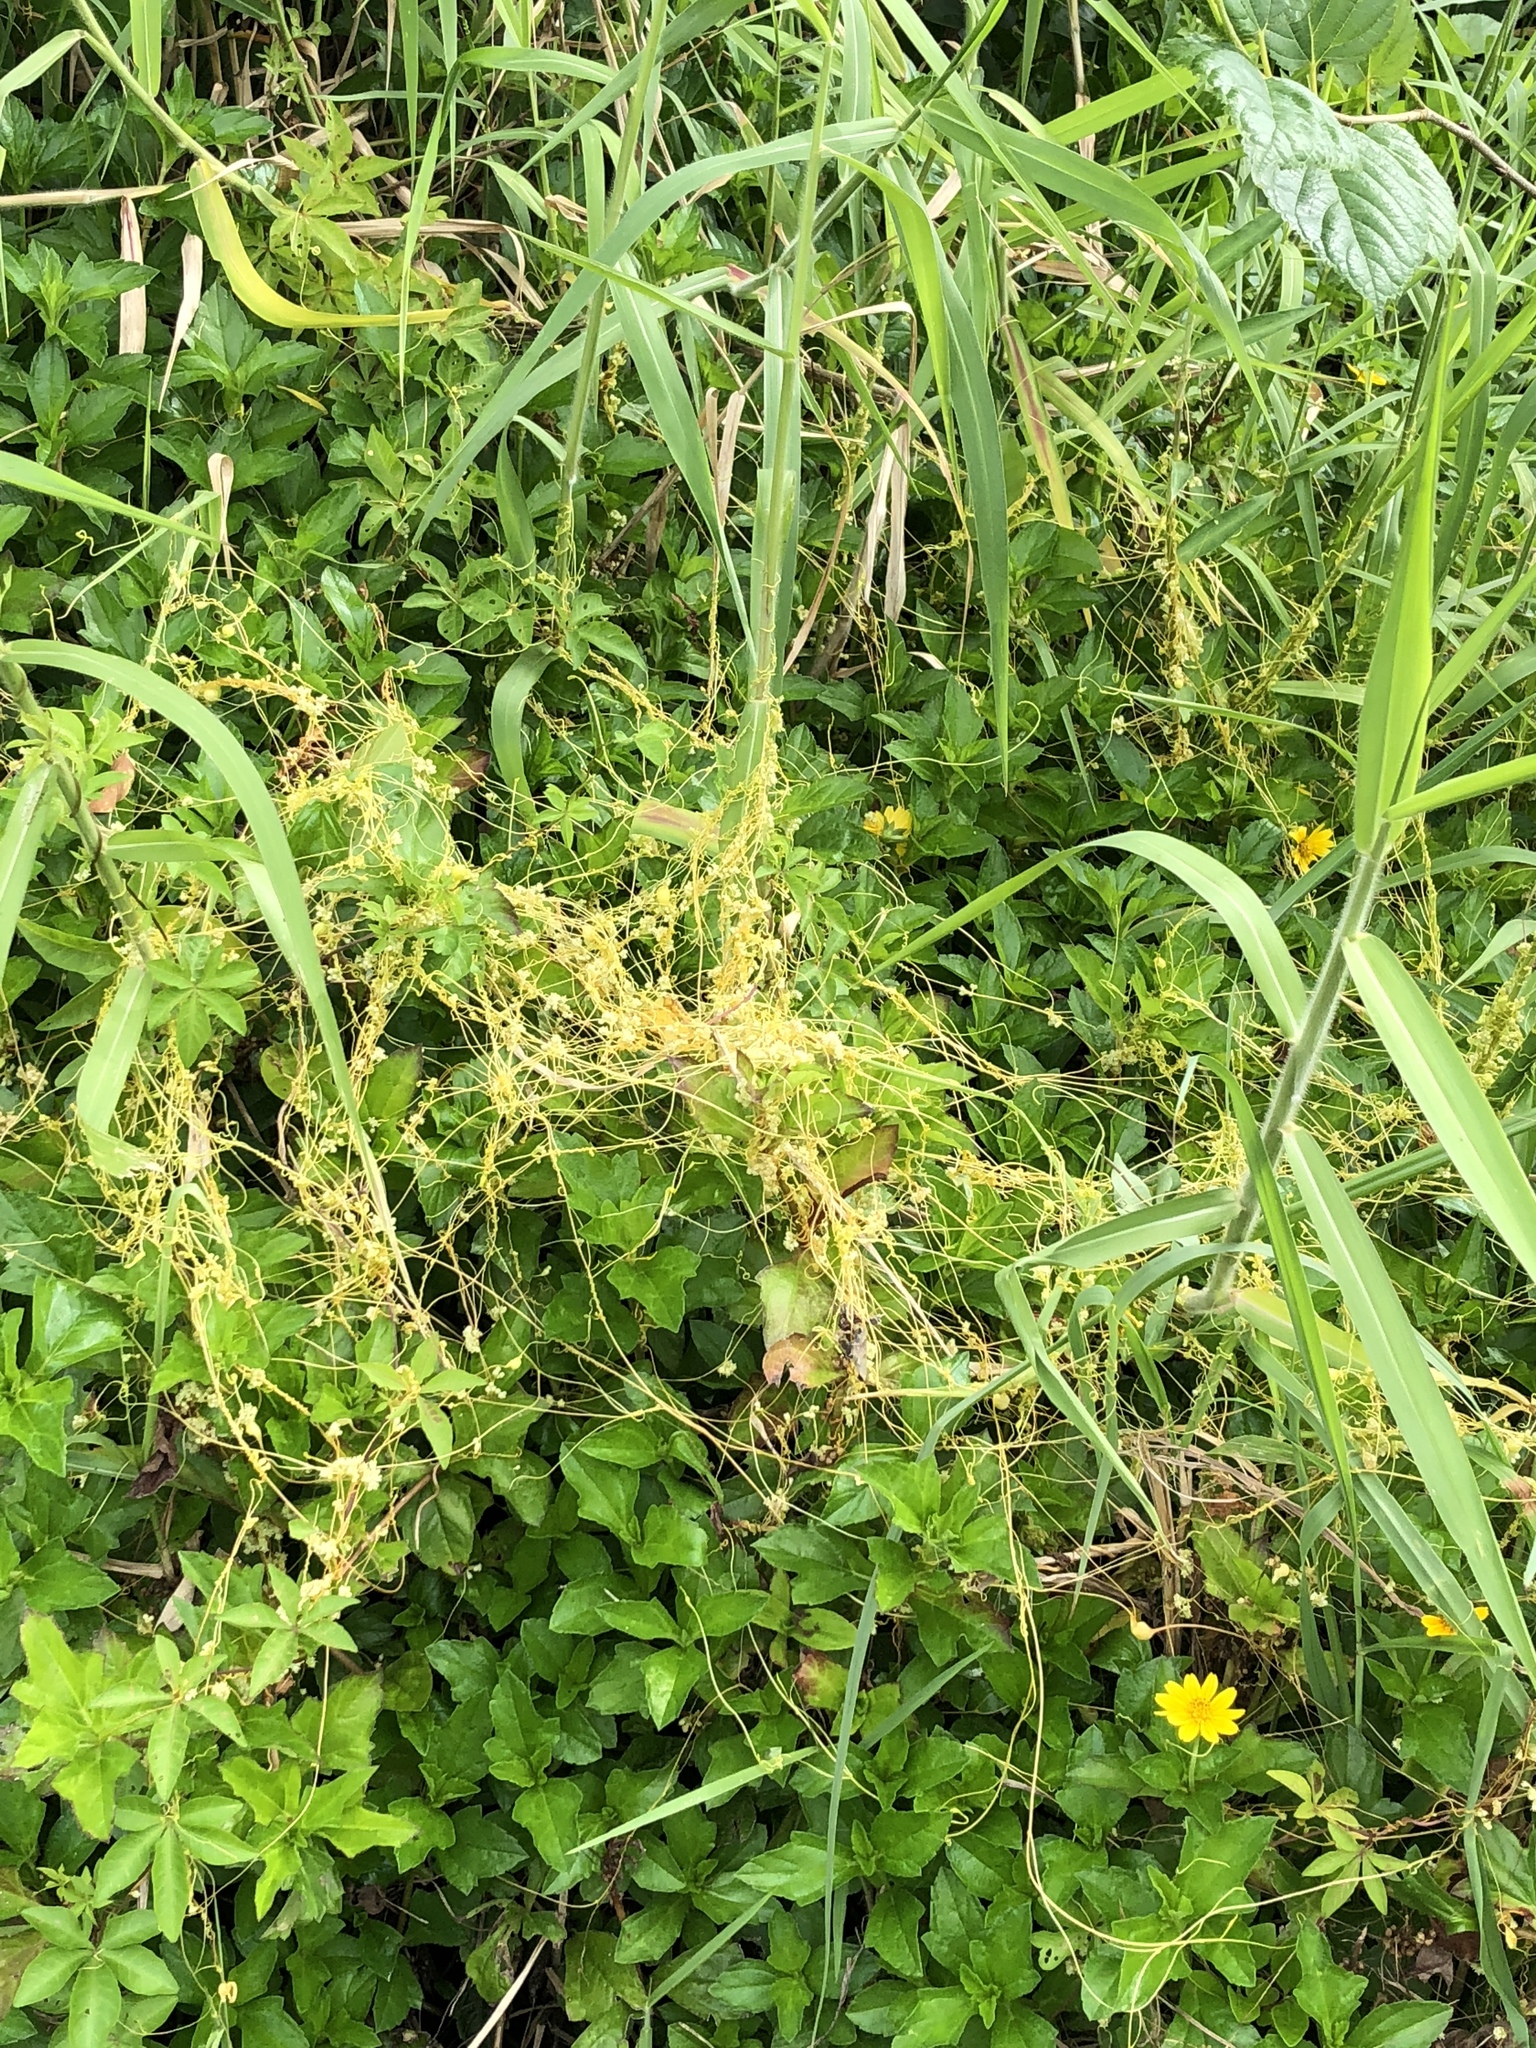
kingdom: Plantae
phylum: Tracheophyta
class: Magnoliopsida
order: Solanales
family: Convolvulaceae
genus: Cuscuta
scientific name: Cuscuta campestris
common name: Yellow dodder
